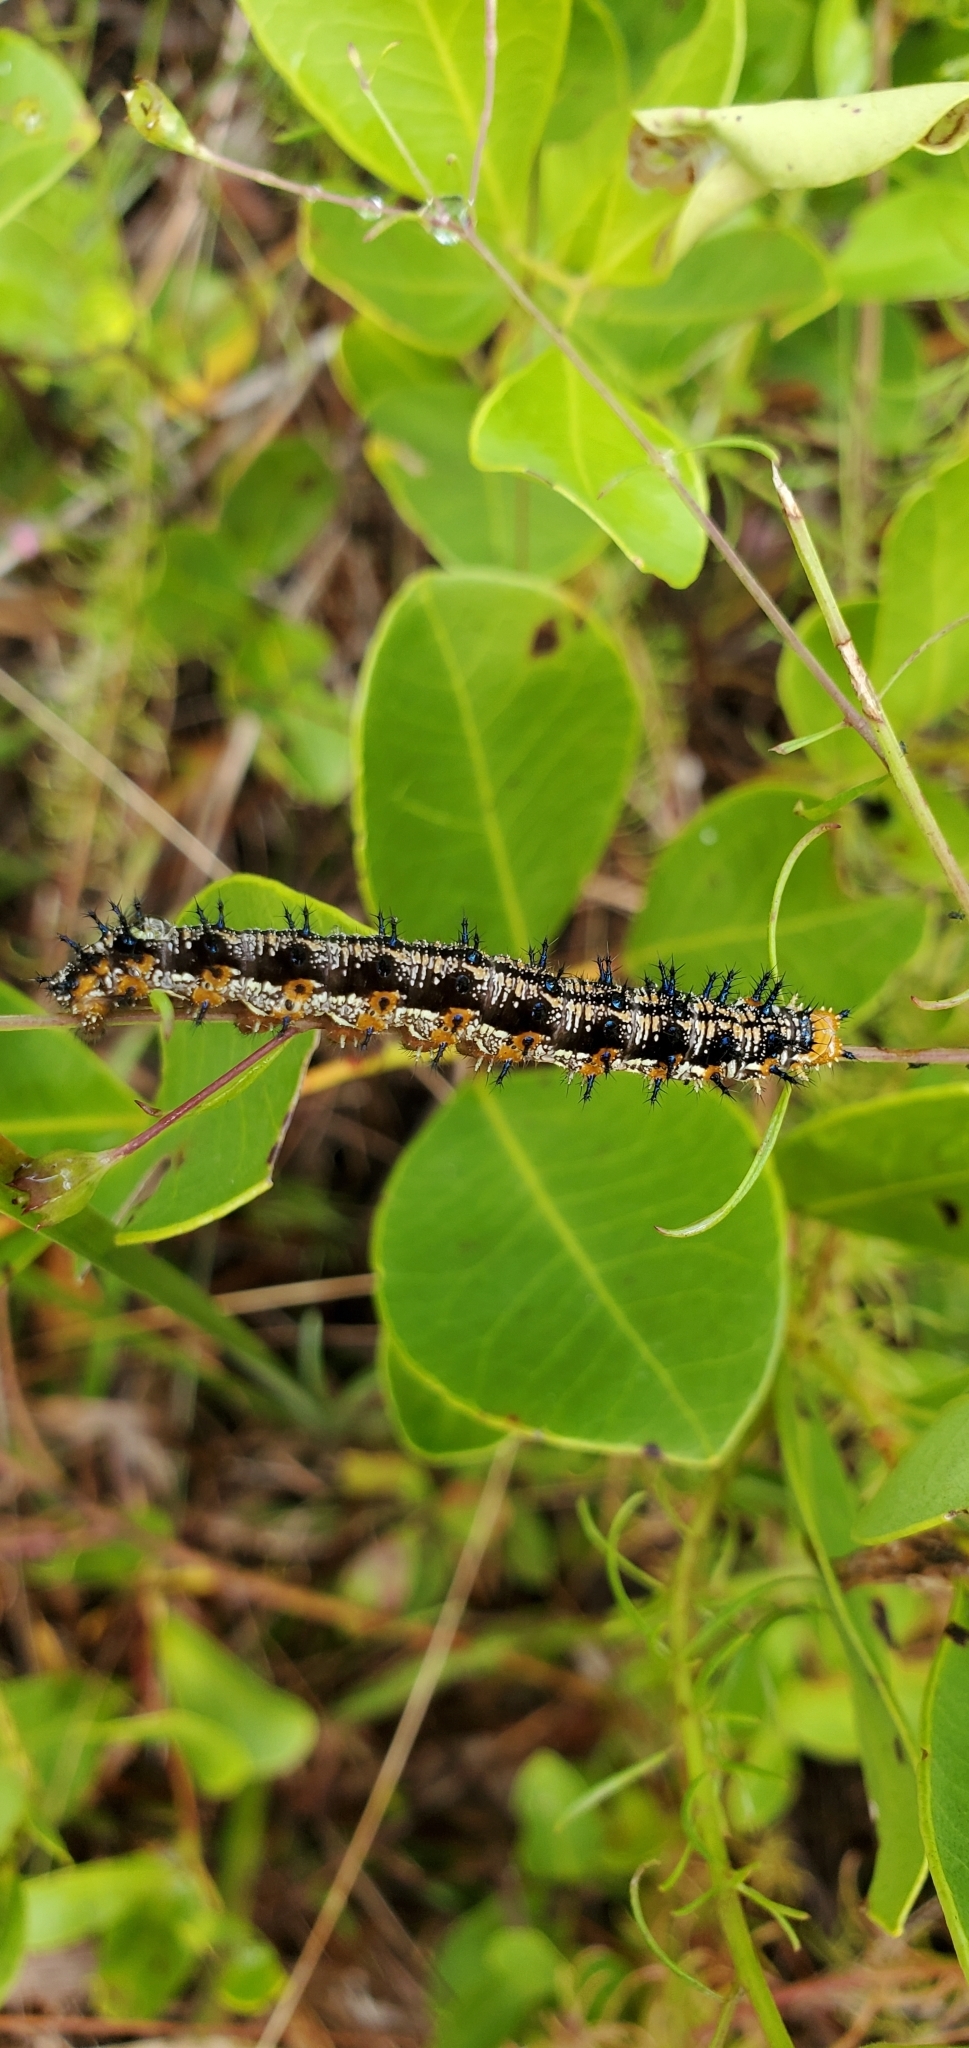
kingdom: Animalia
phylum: Arthropoda
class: Insecta
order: Lepidoptera
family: Nymphalidae
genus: Junonia
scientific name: Junonia coenia
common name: Common buckeye
